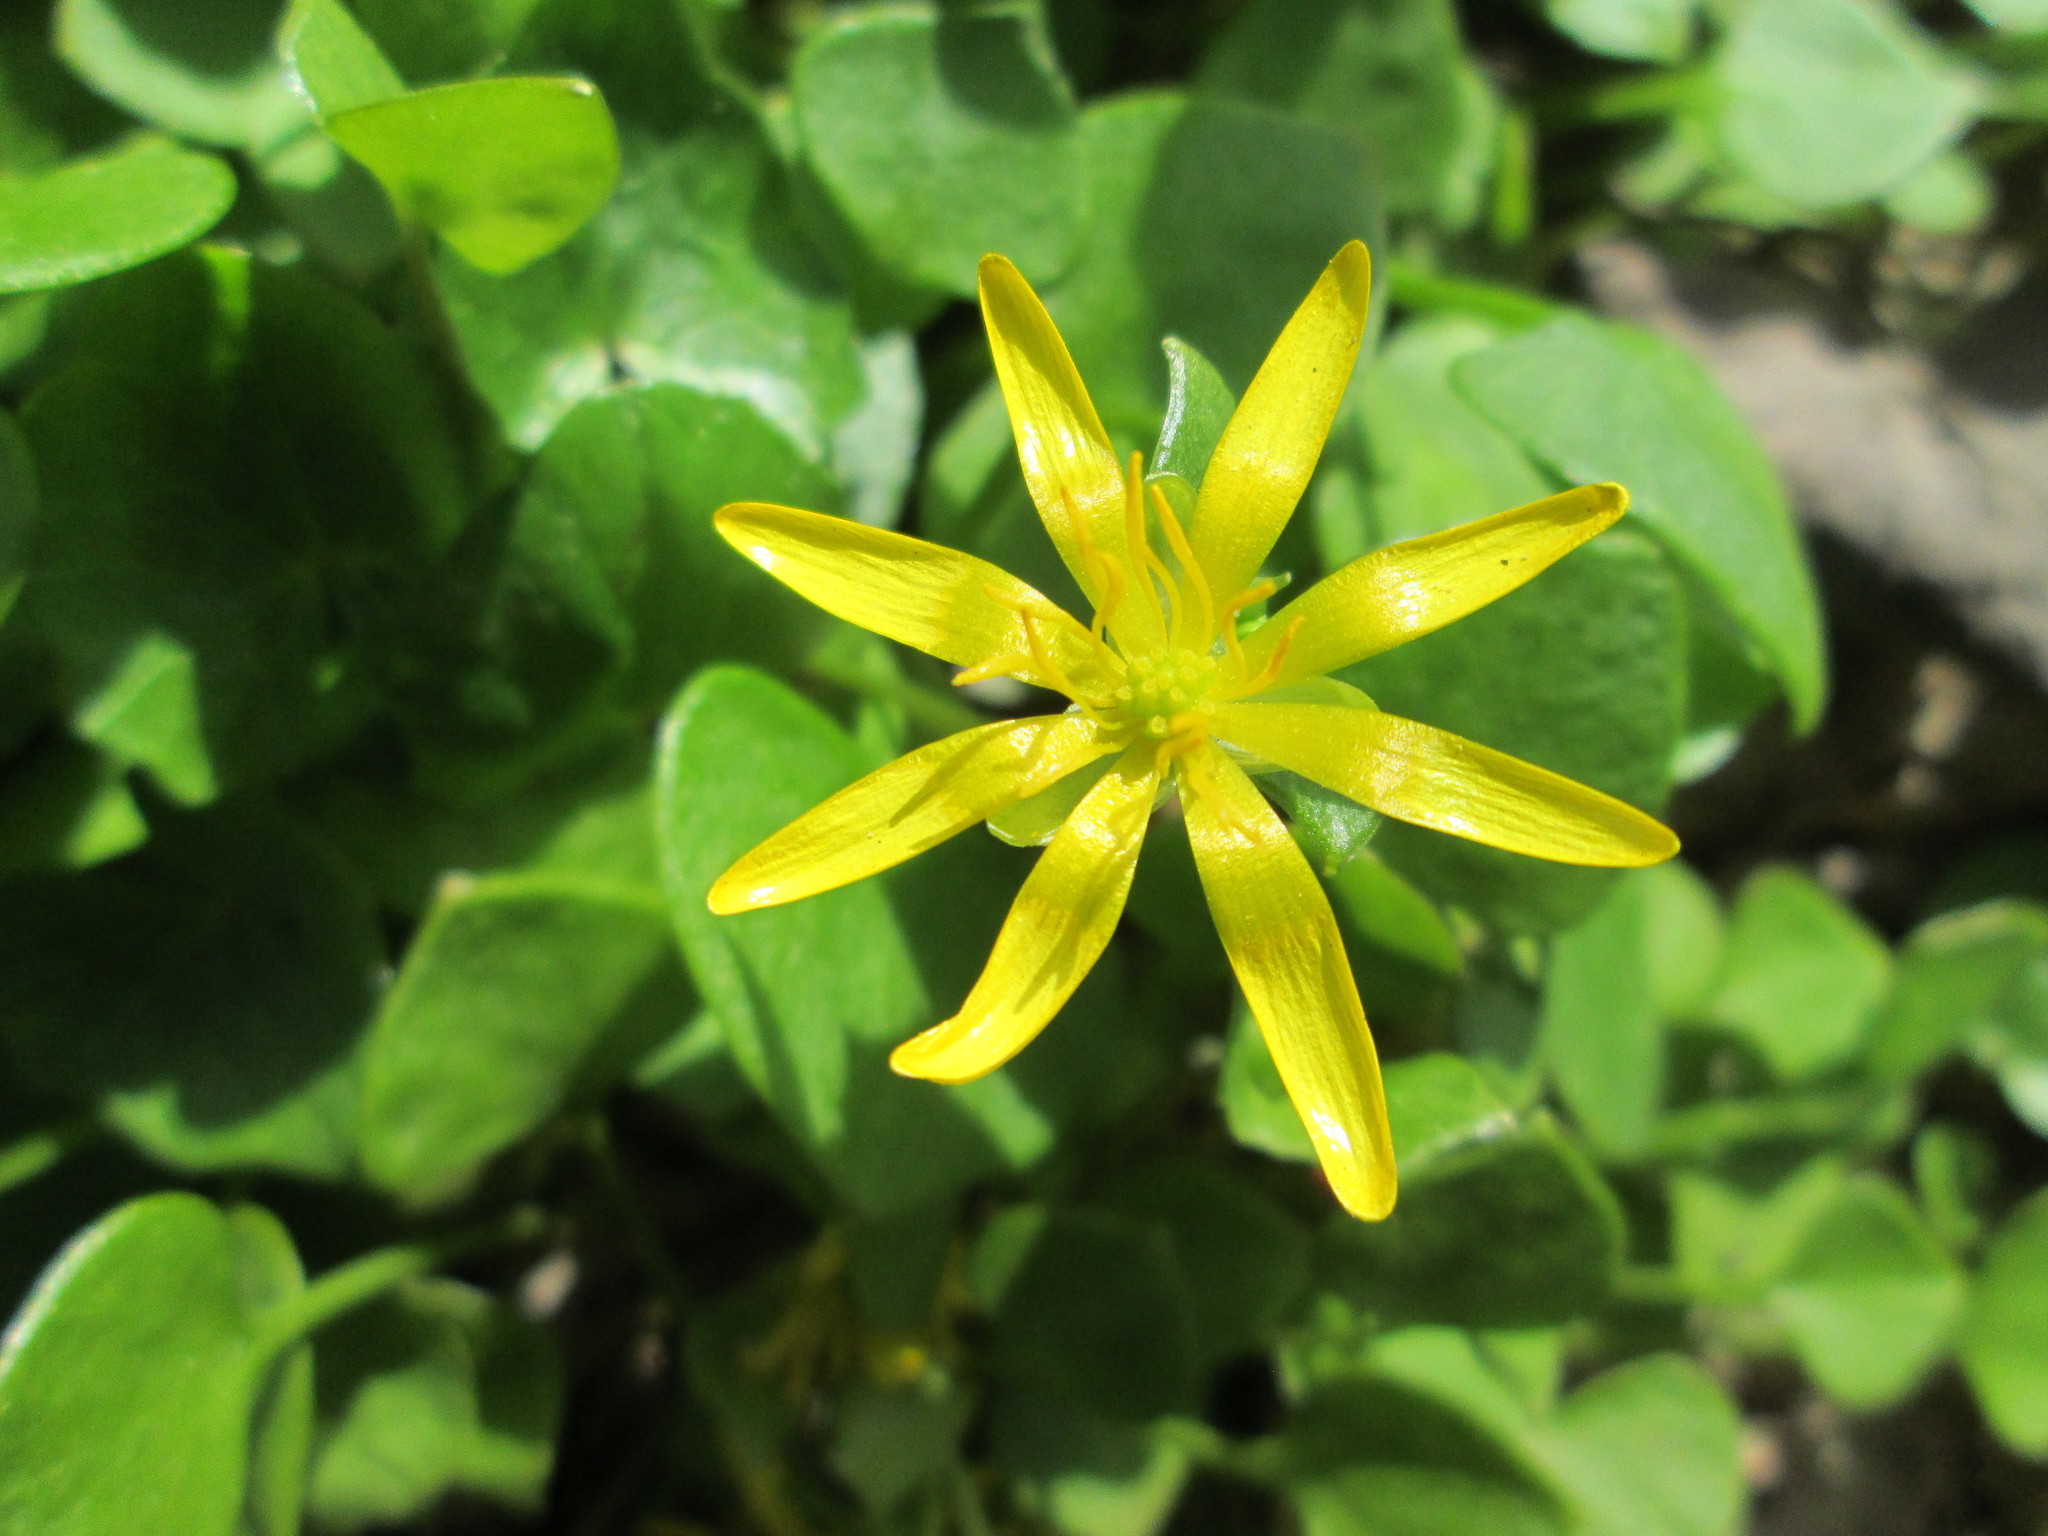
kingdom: Plantae
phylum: Tracheophyta
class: Magnoliopsida
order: Ranunculales
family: Ranunculaceae
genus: Ficaria
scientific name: Ficaria verna
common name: Lesser celandine
